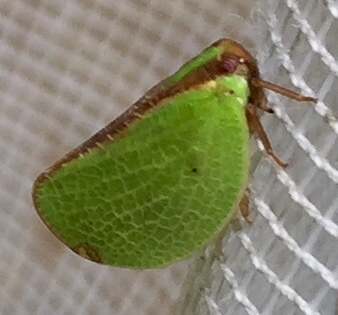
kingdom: Animalia
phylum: Arthropoda
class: Insecta
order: Hemiptera
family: Acanaloniidae
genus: Acanalonia
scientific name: Acanalonia bivittata
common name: Two-striped planthopper
